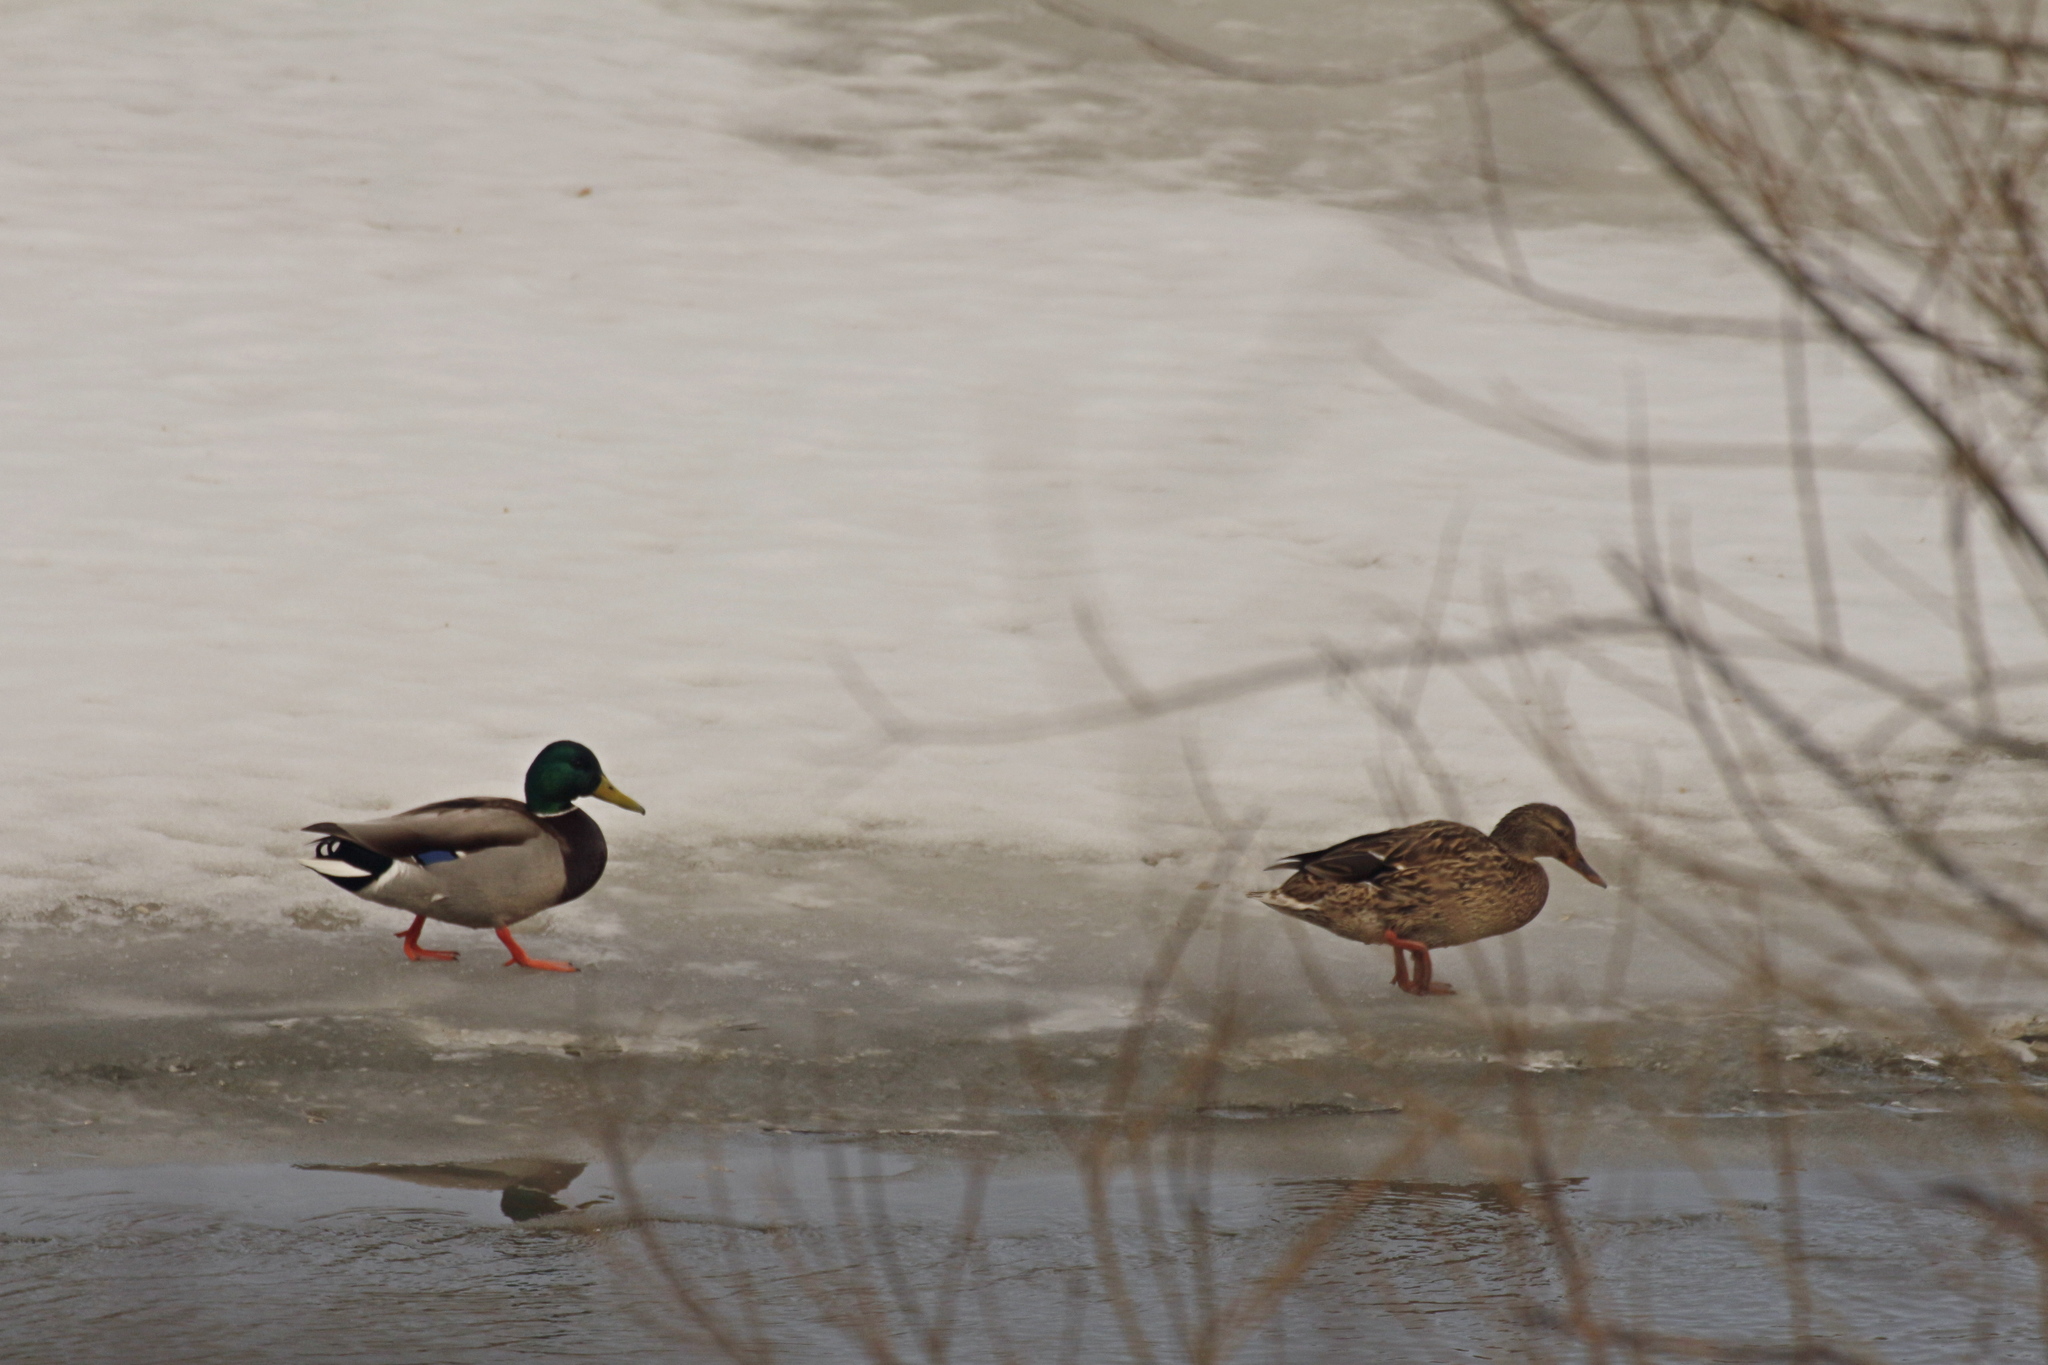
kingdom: Animalia
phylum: Chordata
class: Aves
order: Anseriformes
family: Anatidae
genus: Anas
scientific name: Anas platyrhynchos
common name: Mallard
